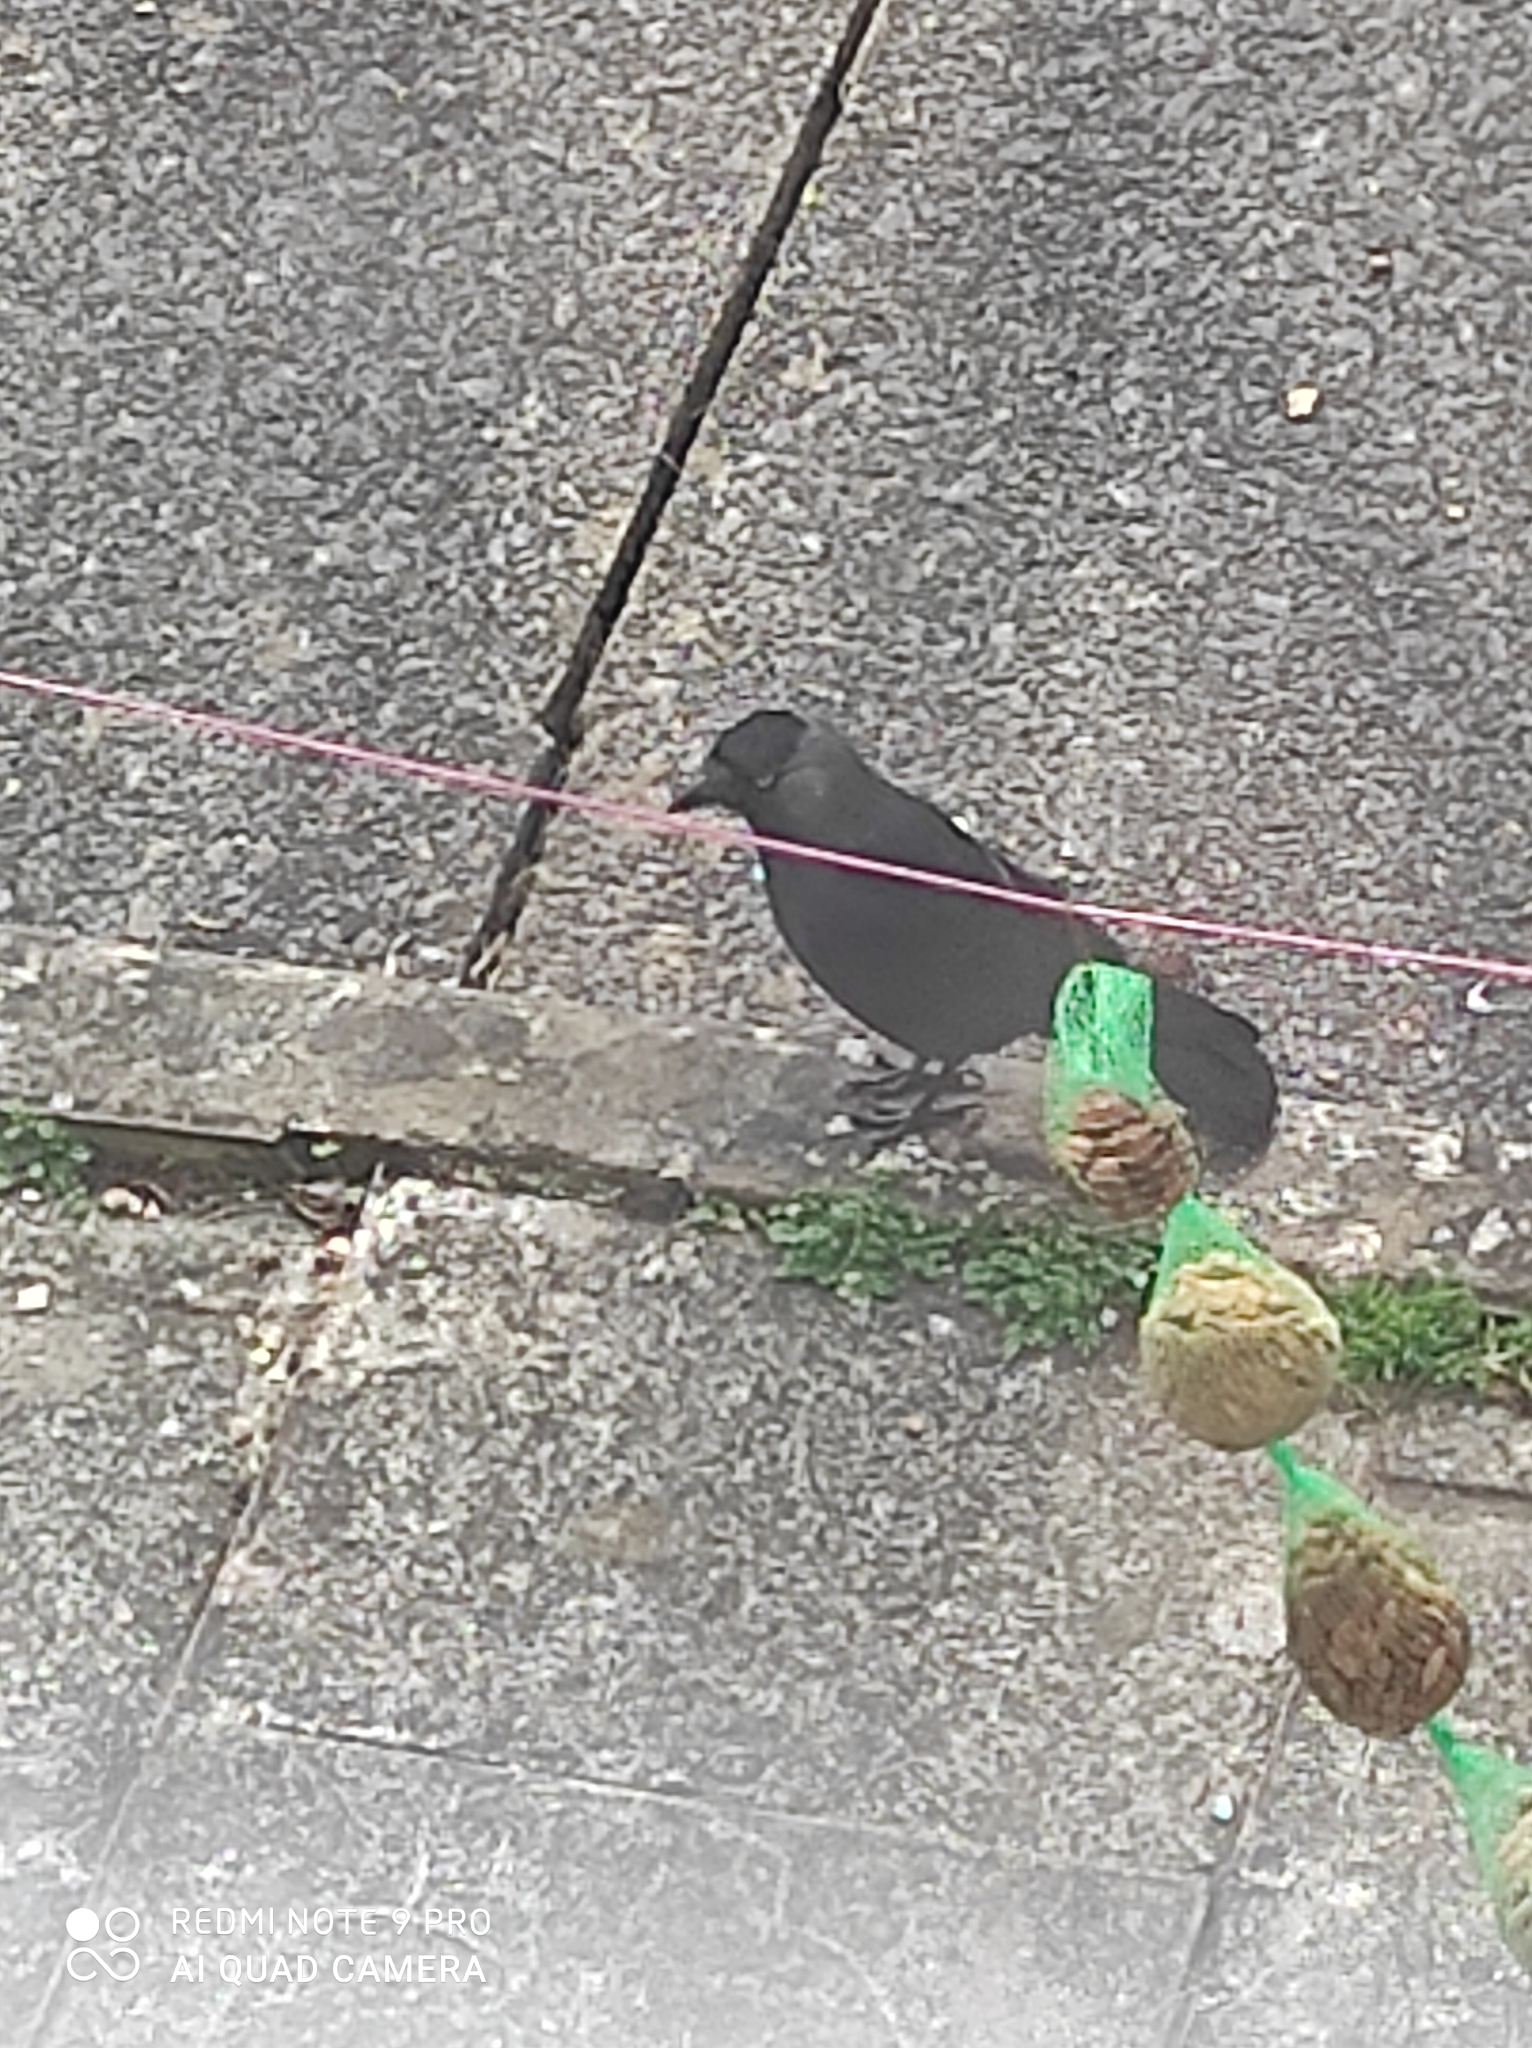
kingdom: Animalia
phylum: Chordata
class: Aves
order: Passeriformes
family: Corvidae
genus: Coloeus
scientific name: Coloeus monedula
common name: Western jackdaw
